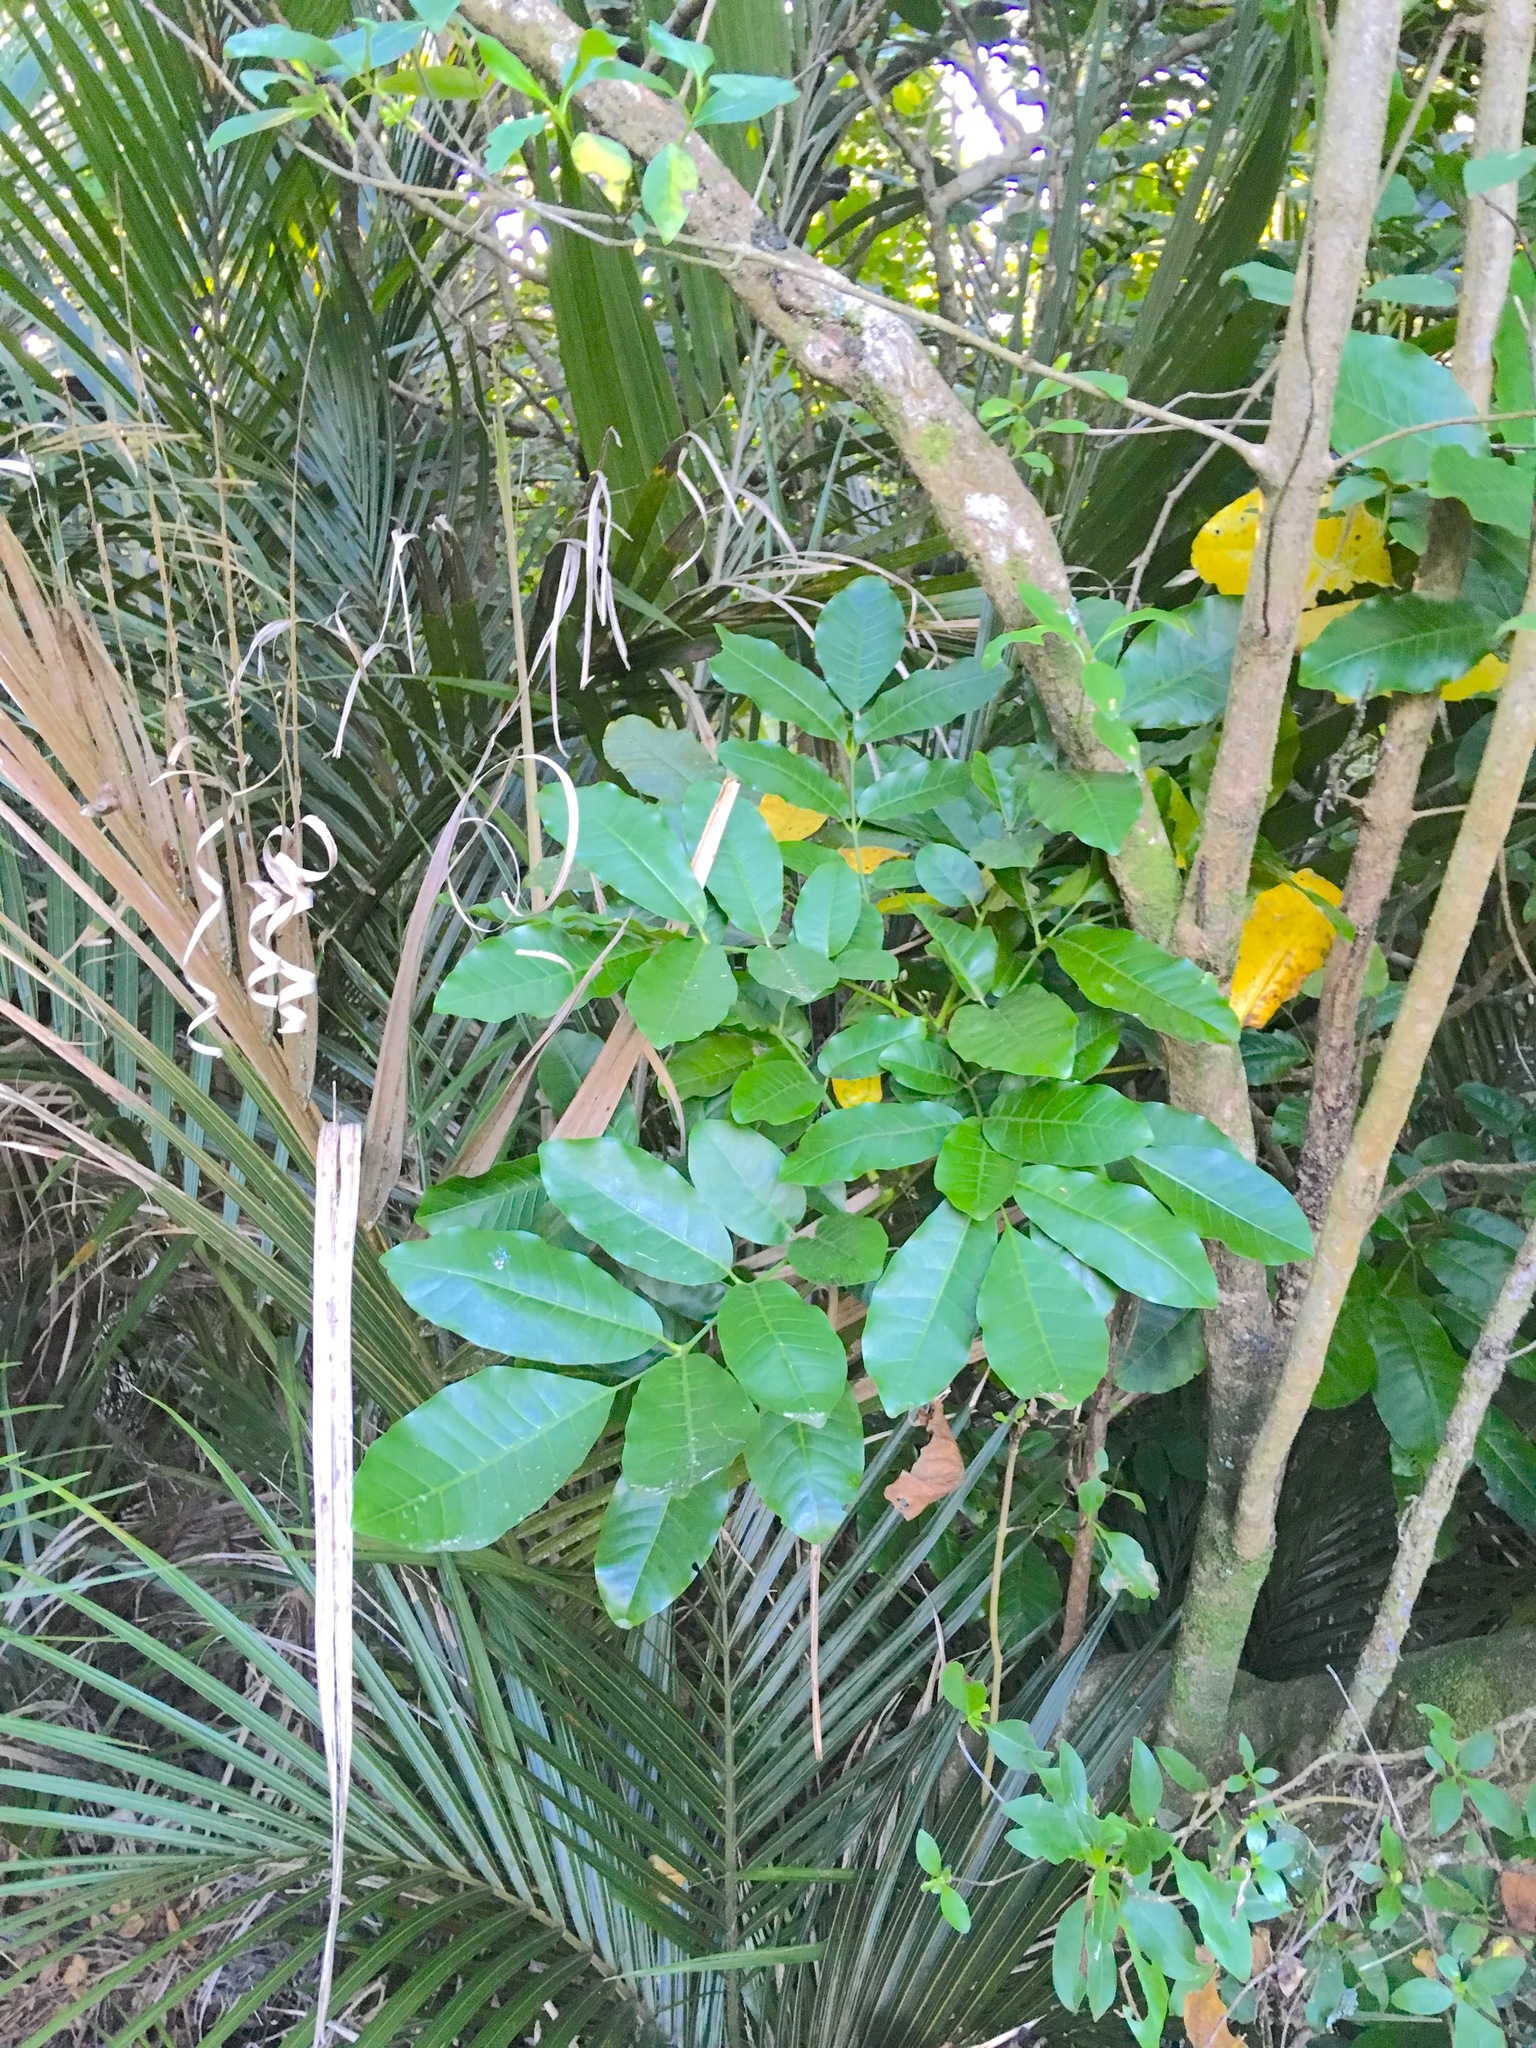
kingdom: Plantae
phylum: Tracheophyta
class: Magnoliopsida
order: Sapindales
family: Meliaceae
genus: Didymocheton
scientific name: Didymocheton spectabilis
